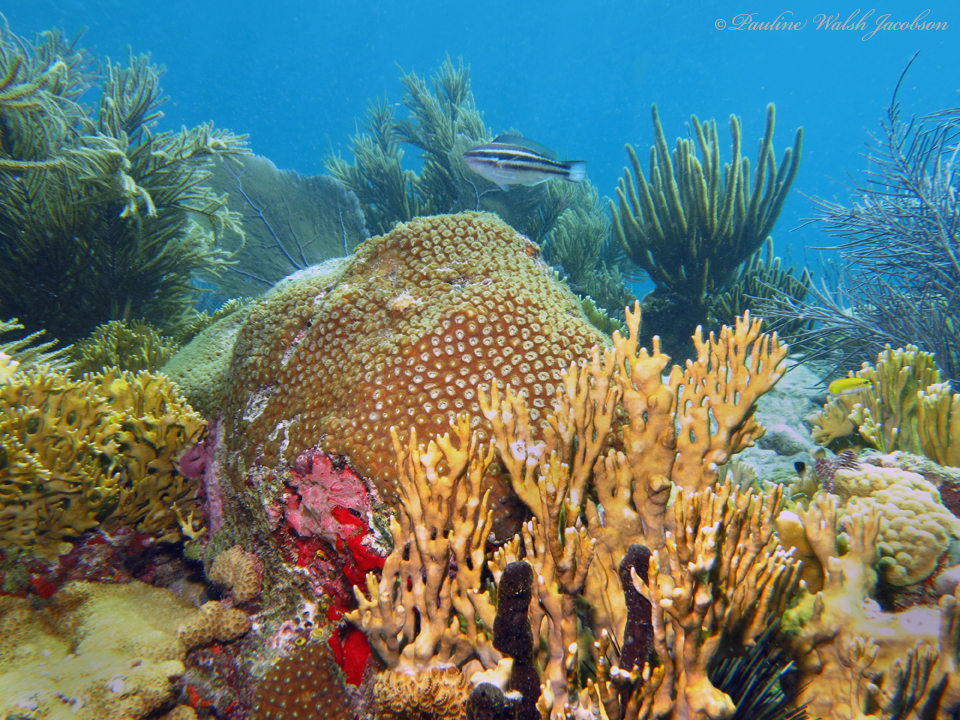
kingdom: Animalia
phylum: Chordata
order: Perciformes
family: Scaridae
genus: Scarus
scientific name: Scarus taeniopterus
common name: Princess parrotfish
